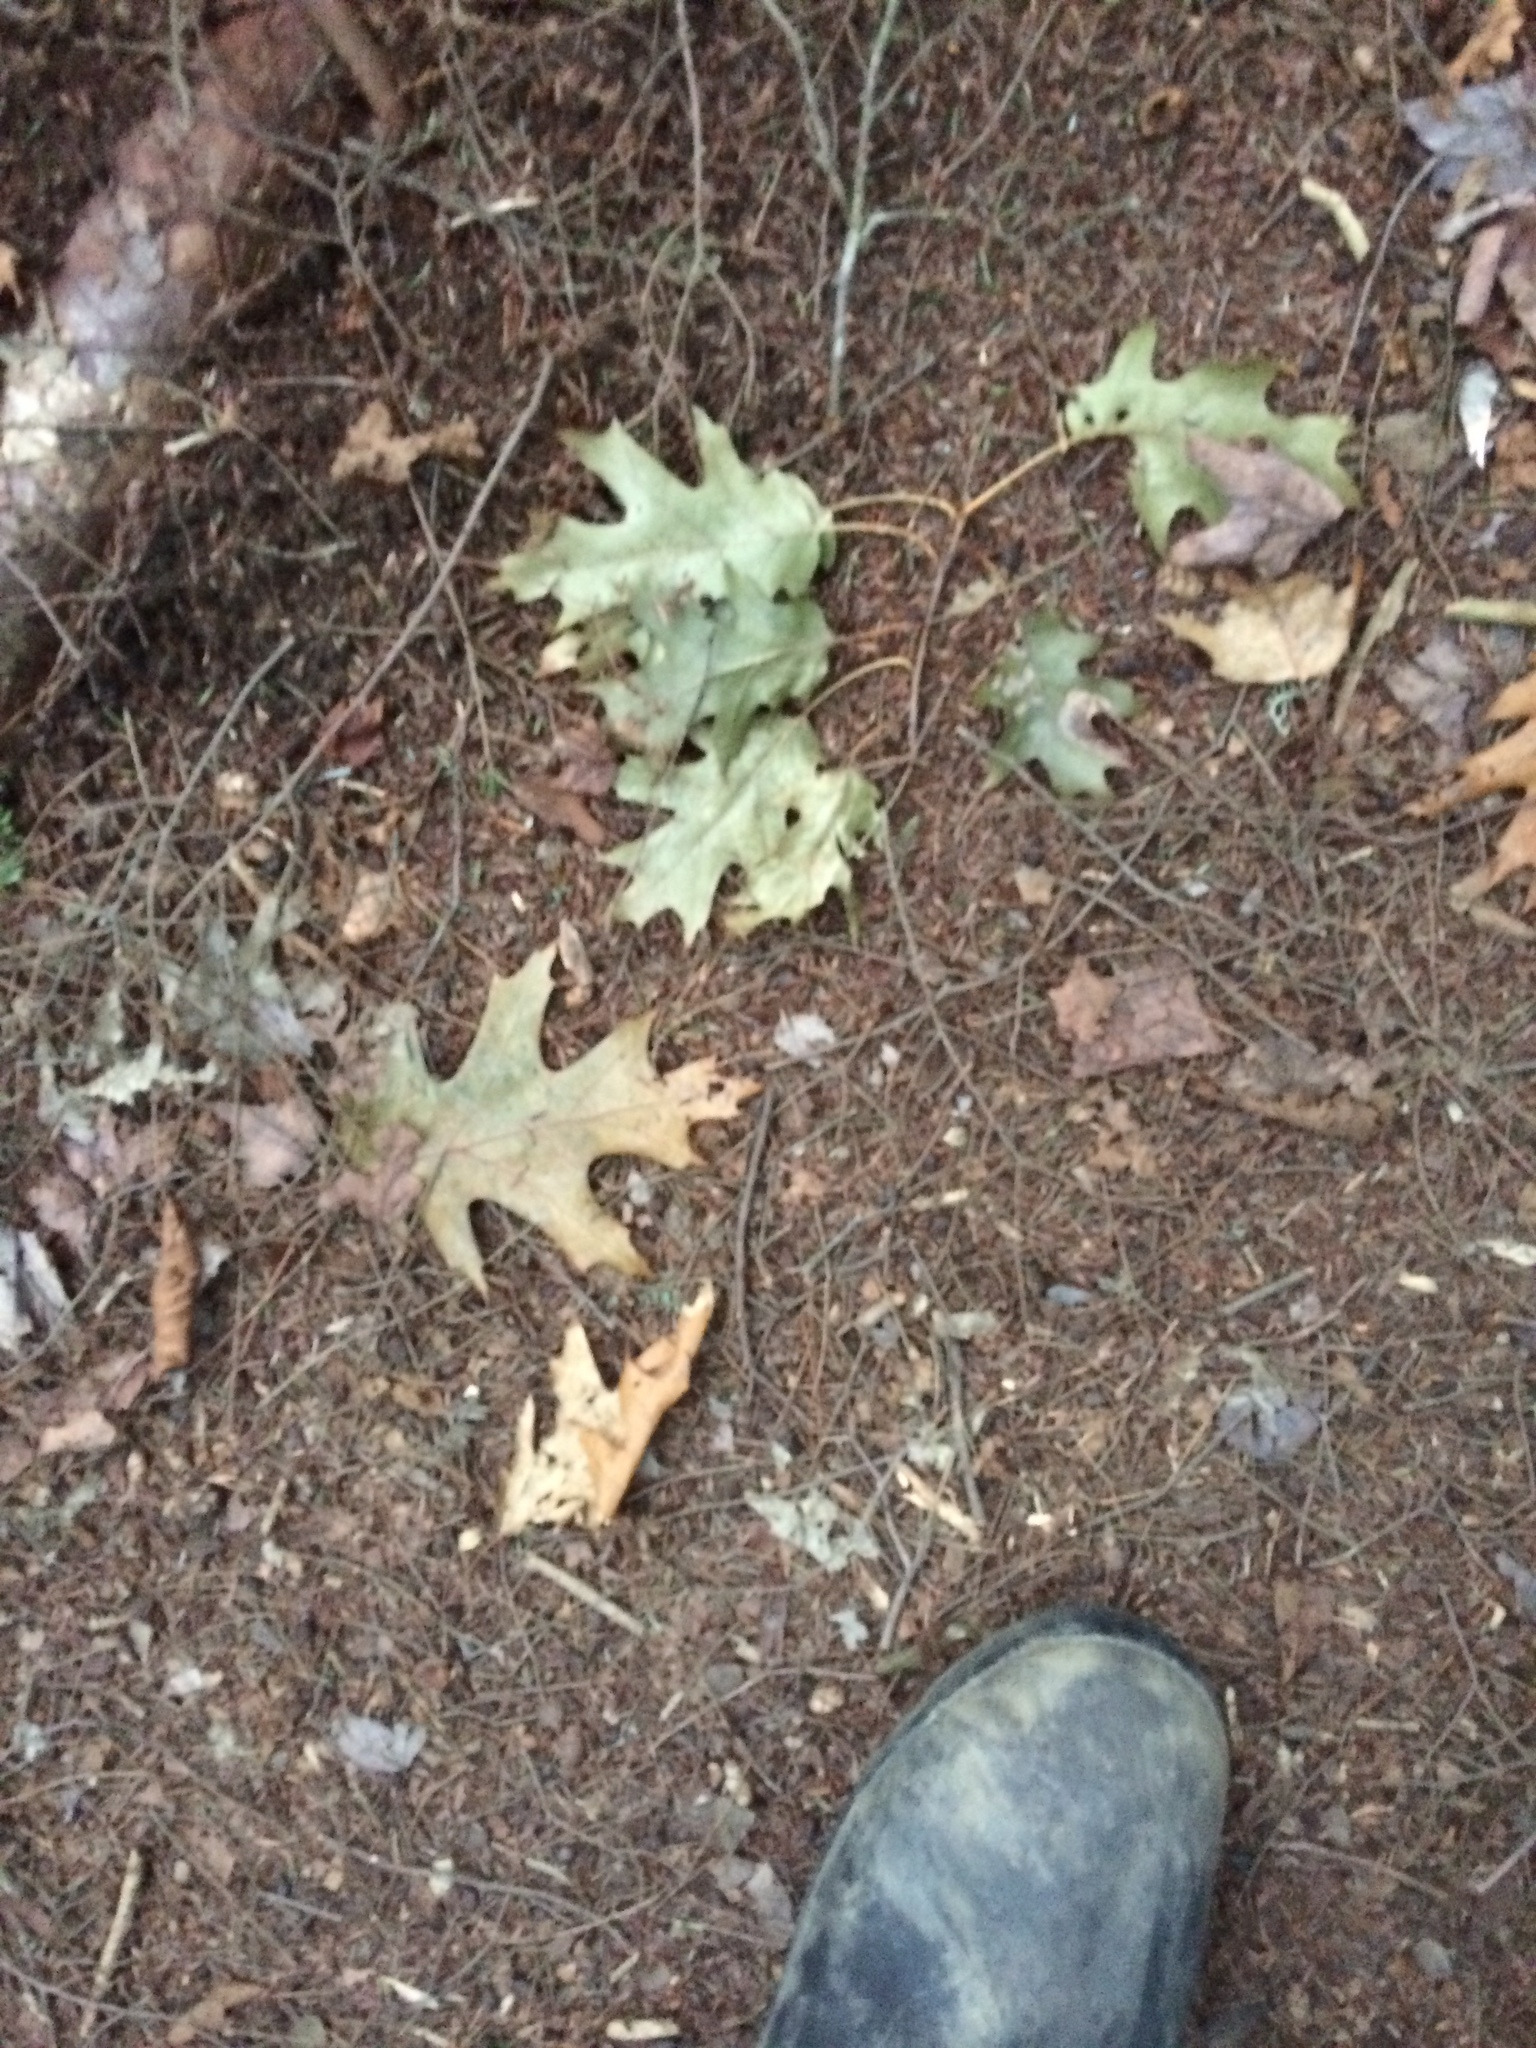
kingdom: Plantae
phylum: Tracheophyta
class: Magnoliopsida
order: Fagales
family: Fagaceae
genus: Quercus
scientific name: Quercus rubra
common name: Red oak
